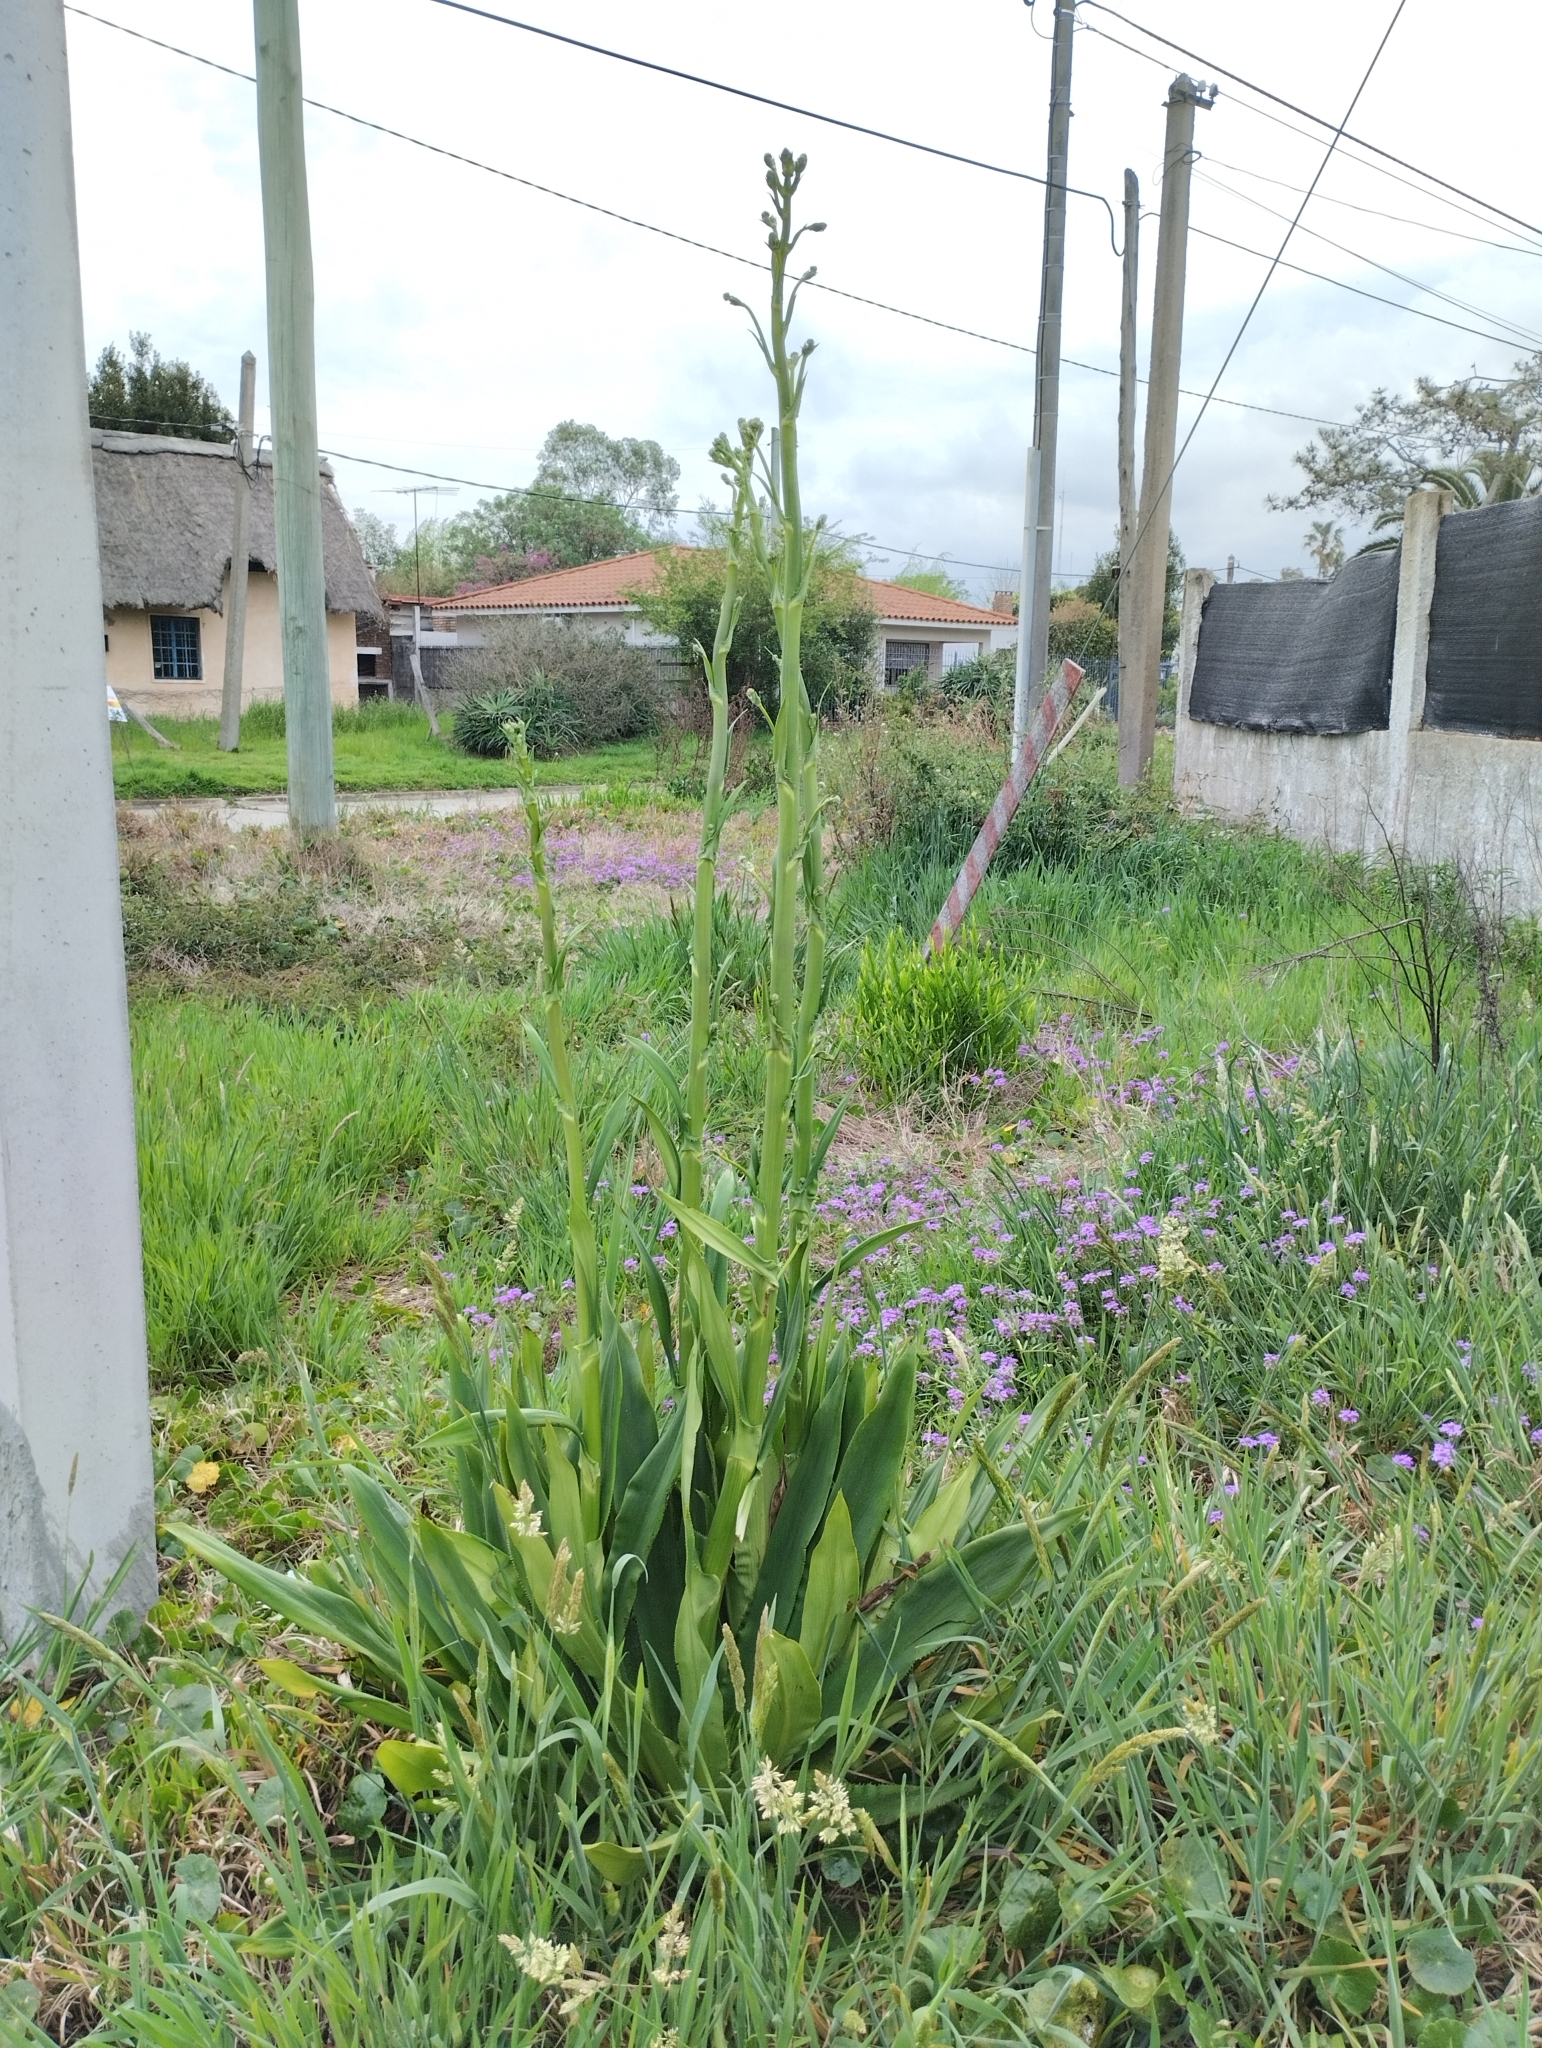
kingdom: Plantae
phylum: Tracheophyta
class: Magnoliopsida
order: Apiales
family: Apiaceae
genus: Eryngium
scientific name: Eryngium elegans
